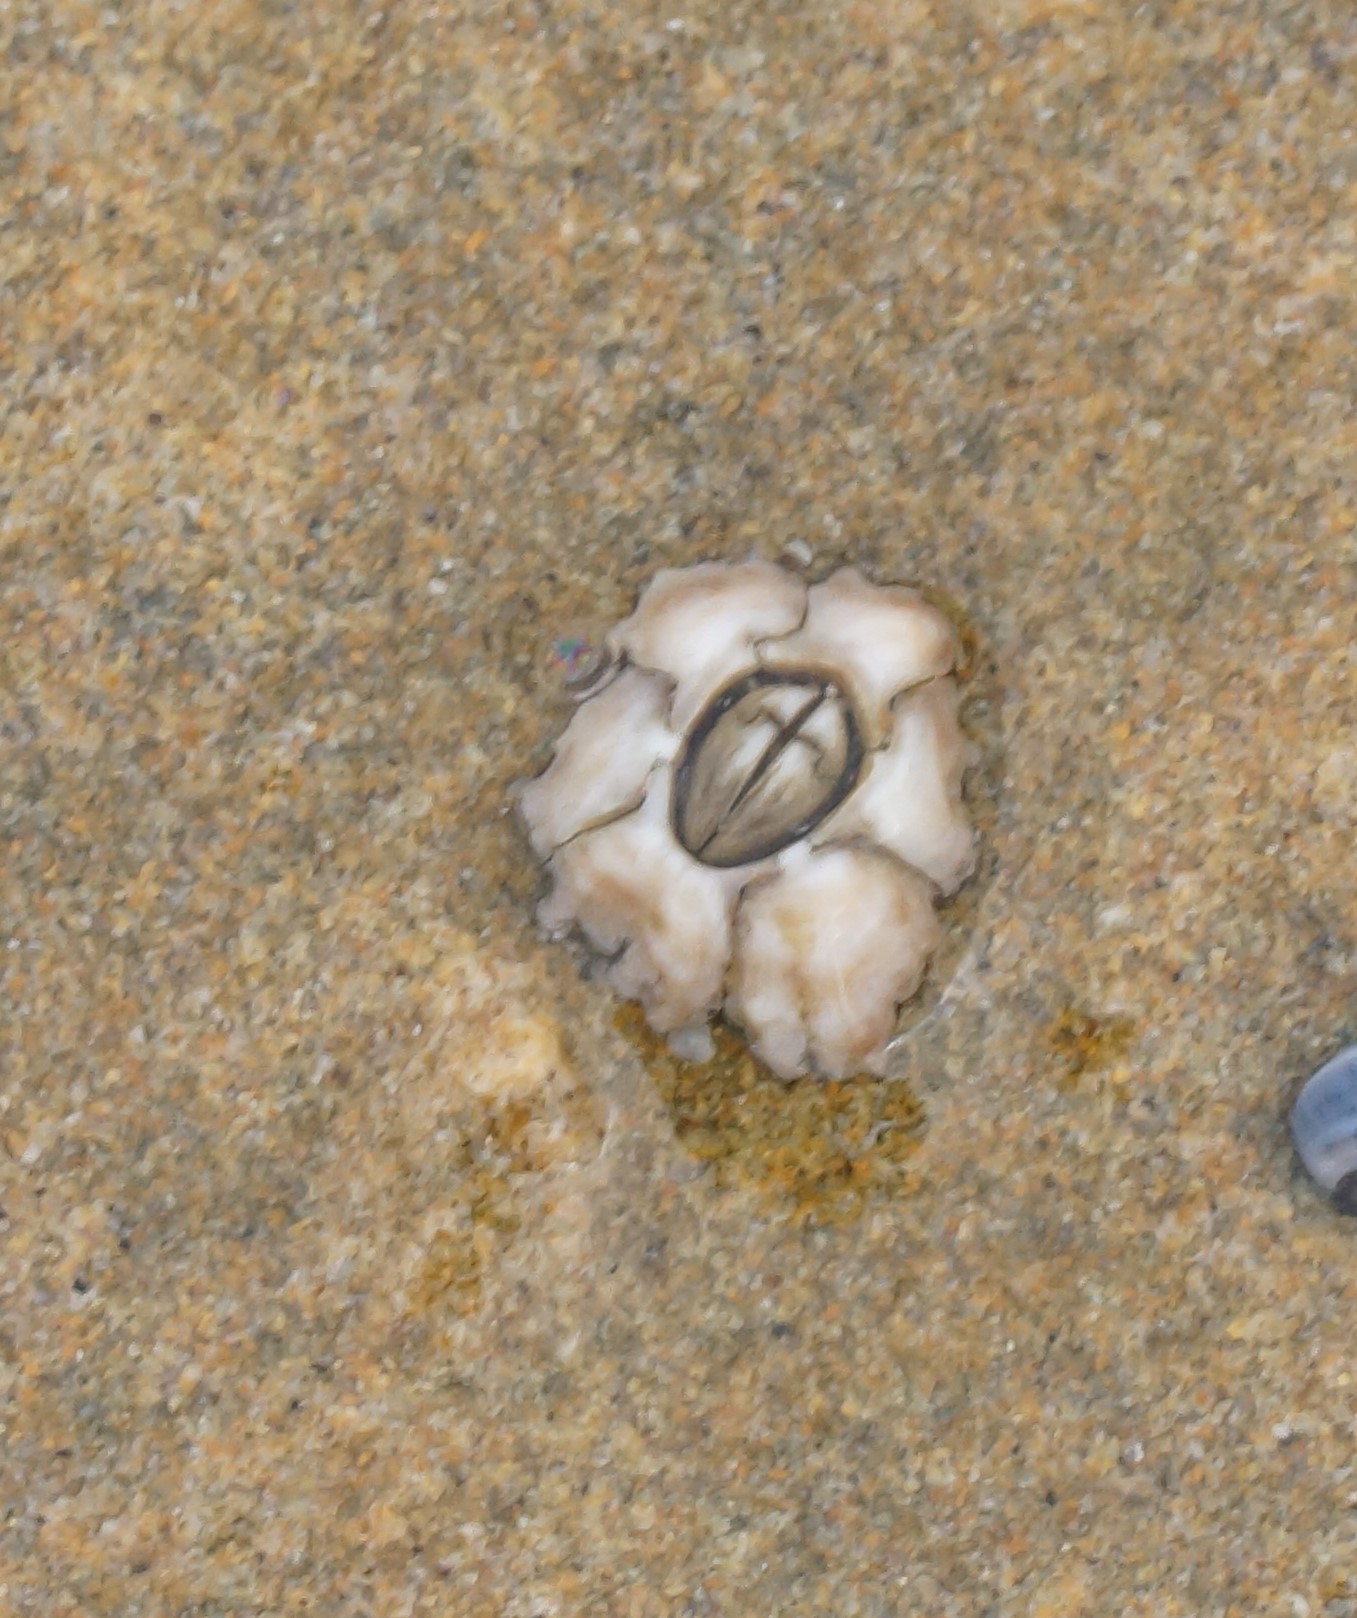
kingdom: Animalia
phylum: Arthropoda
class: Maxillopoda
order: Sessilia
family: Chthamalidae
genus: Chthamalus
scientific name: Chthamalus antennatus
